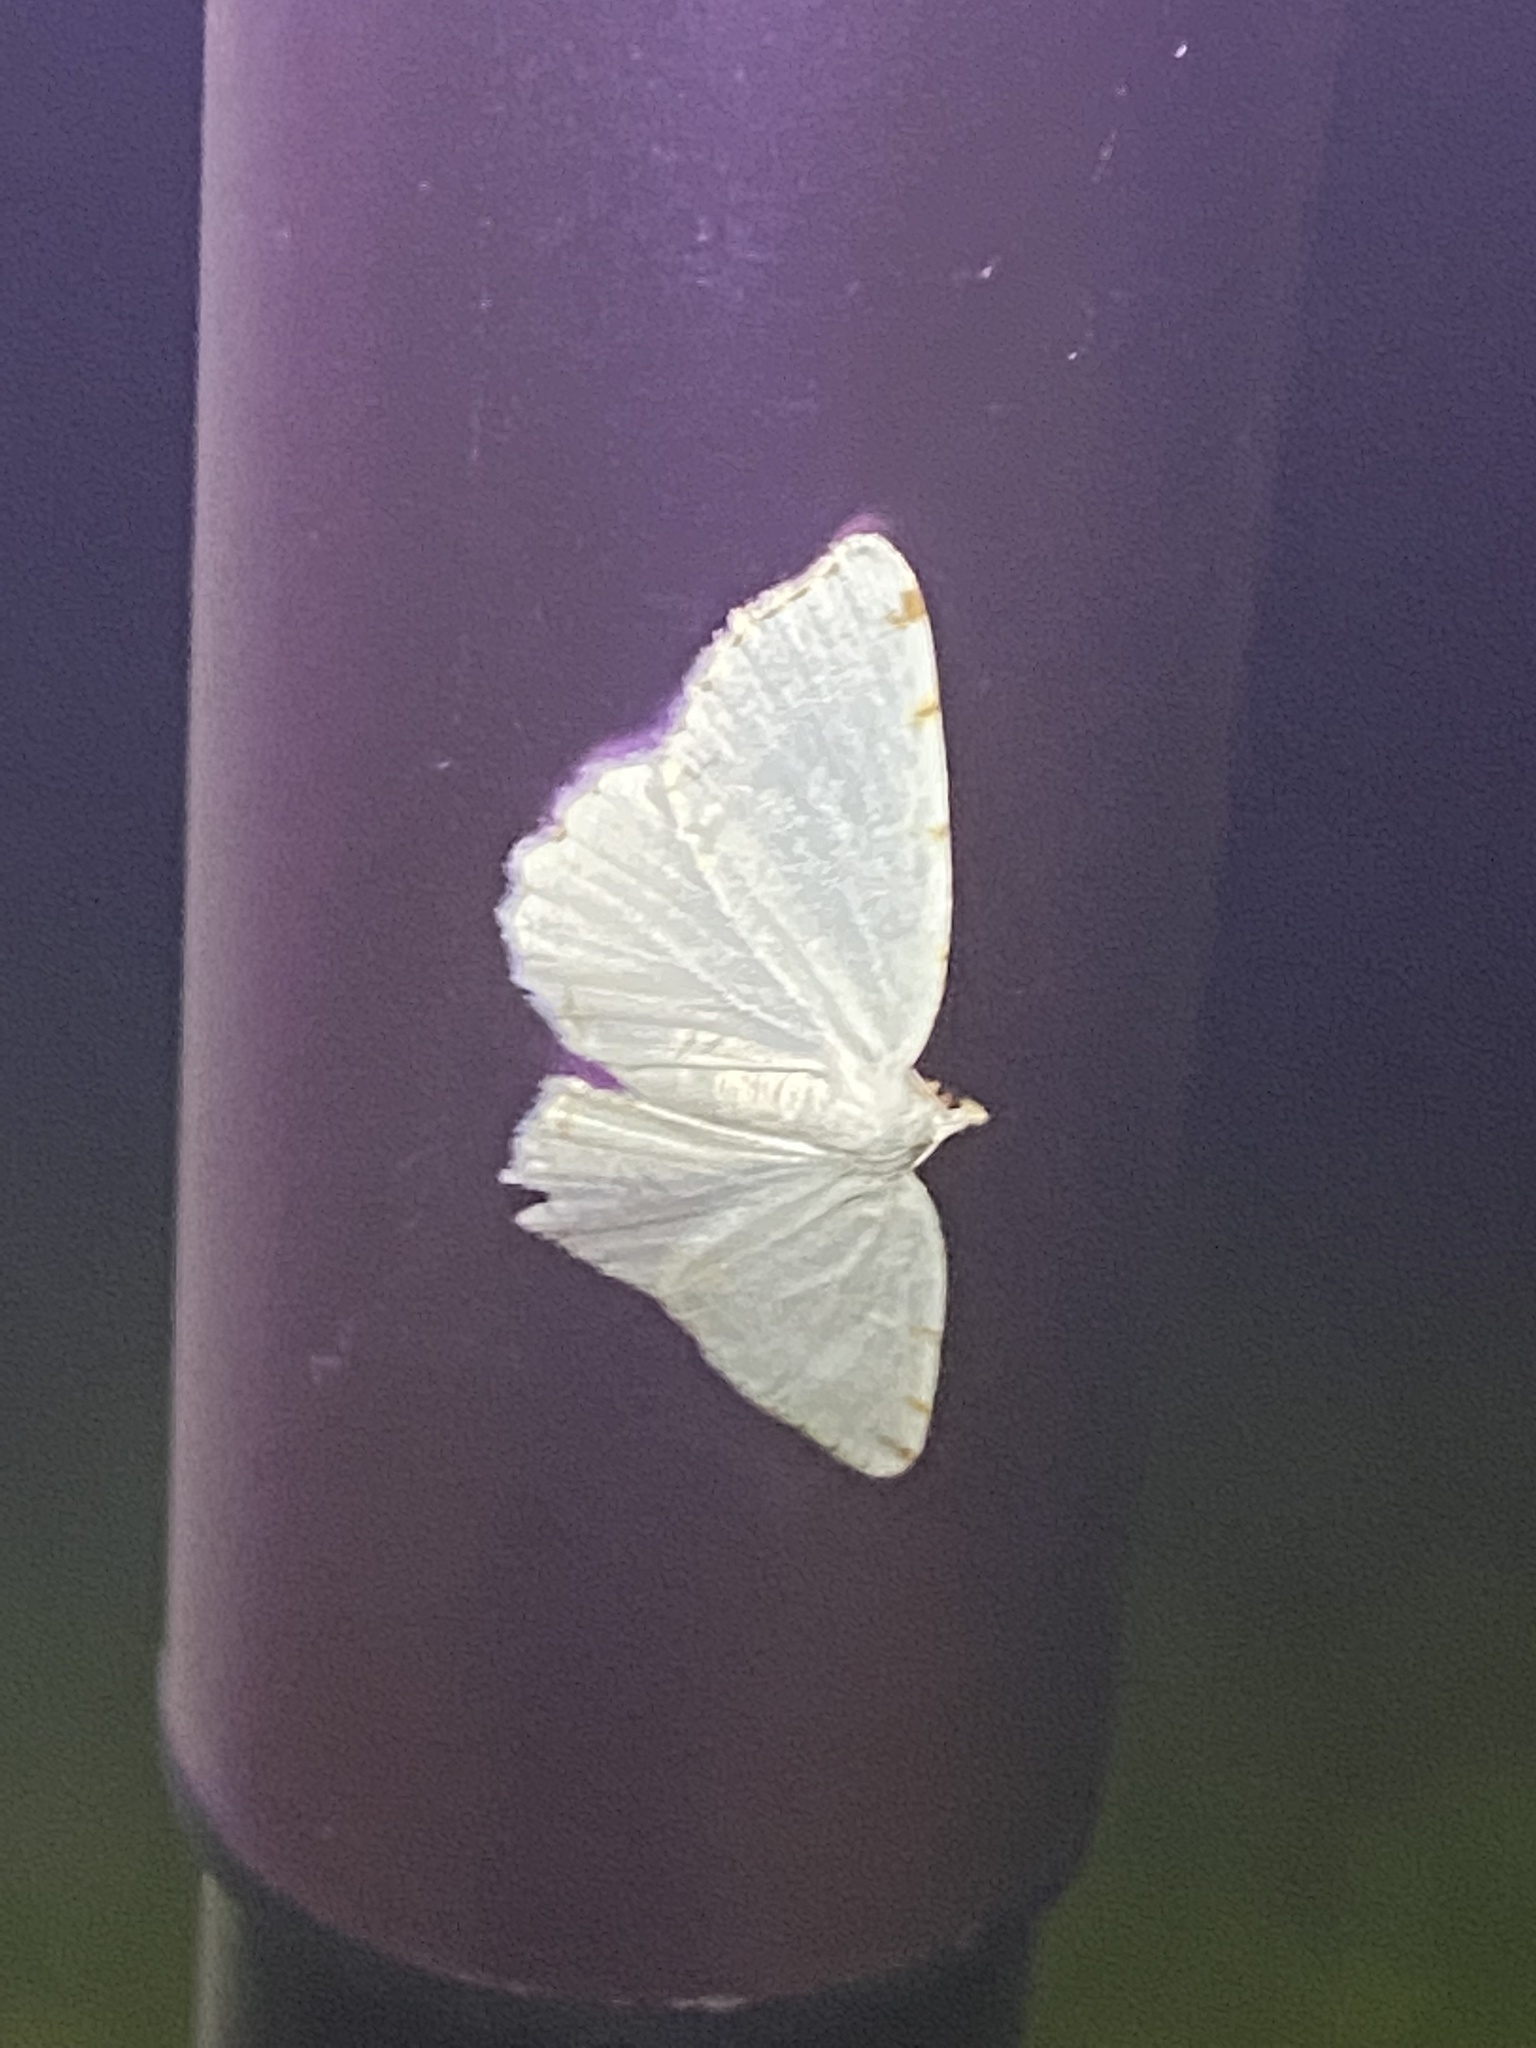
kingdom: Animalia
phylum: Arthropoda
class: Insecta
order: Lepidoptera
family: Geometridae
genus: Macaria
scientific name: Macaria pustularia
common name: Lesser maple spanworm moth
